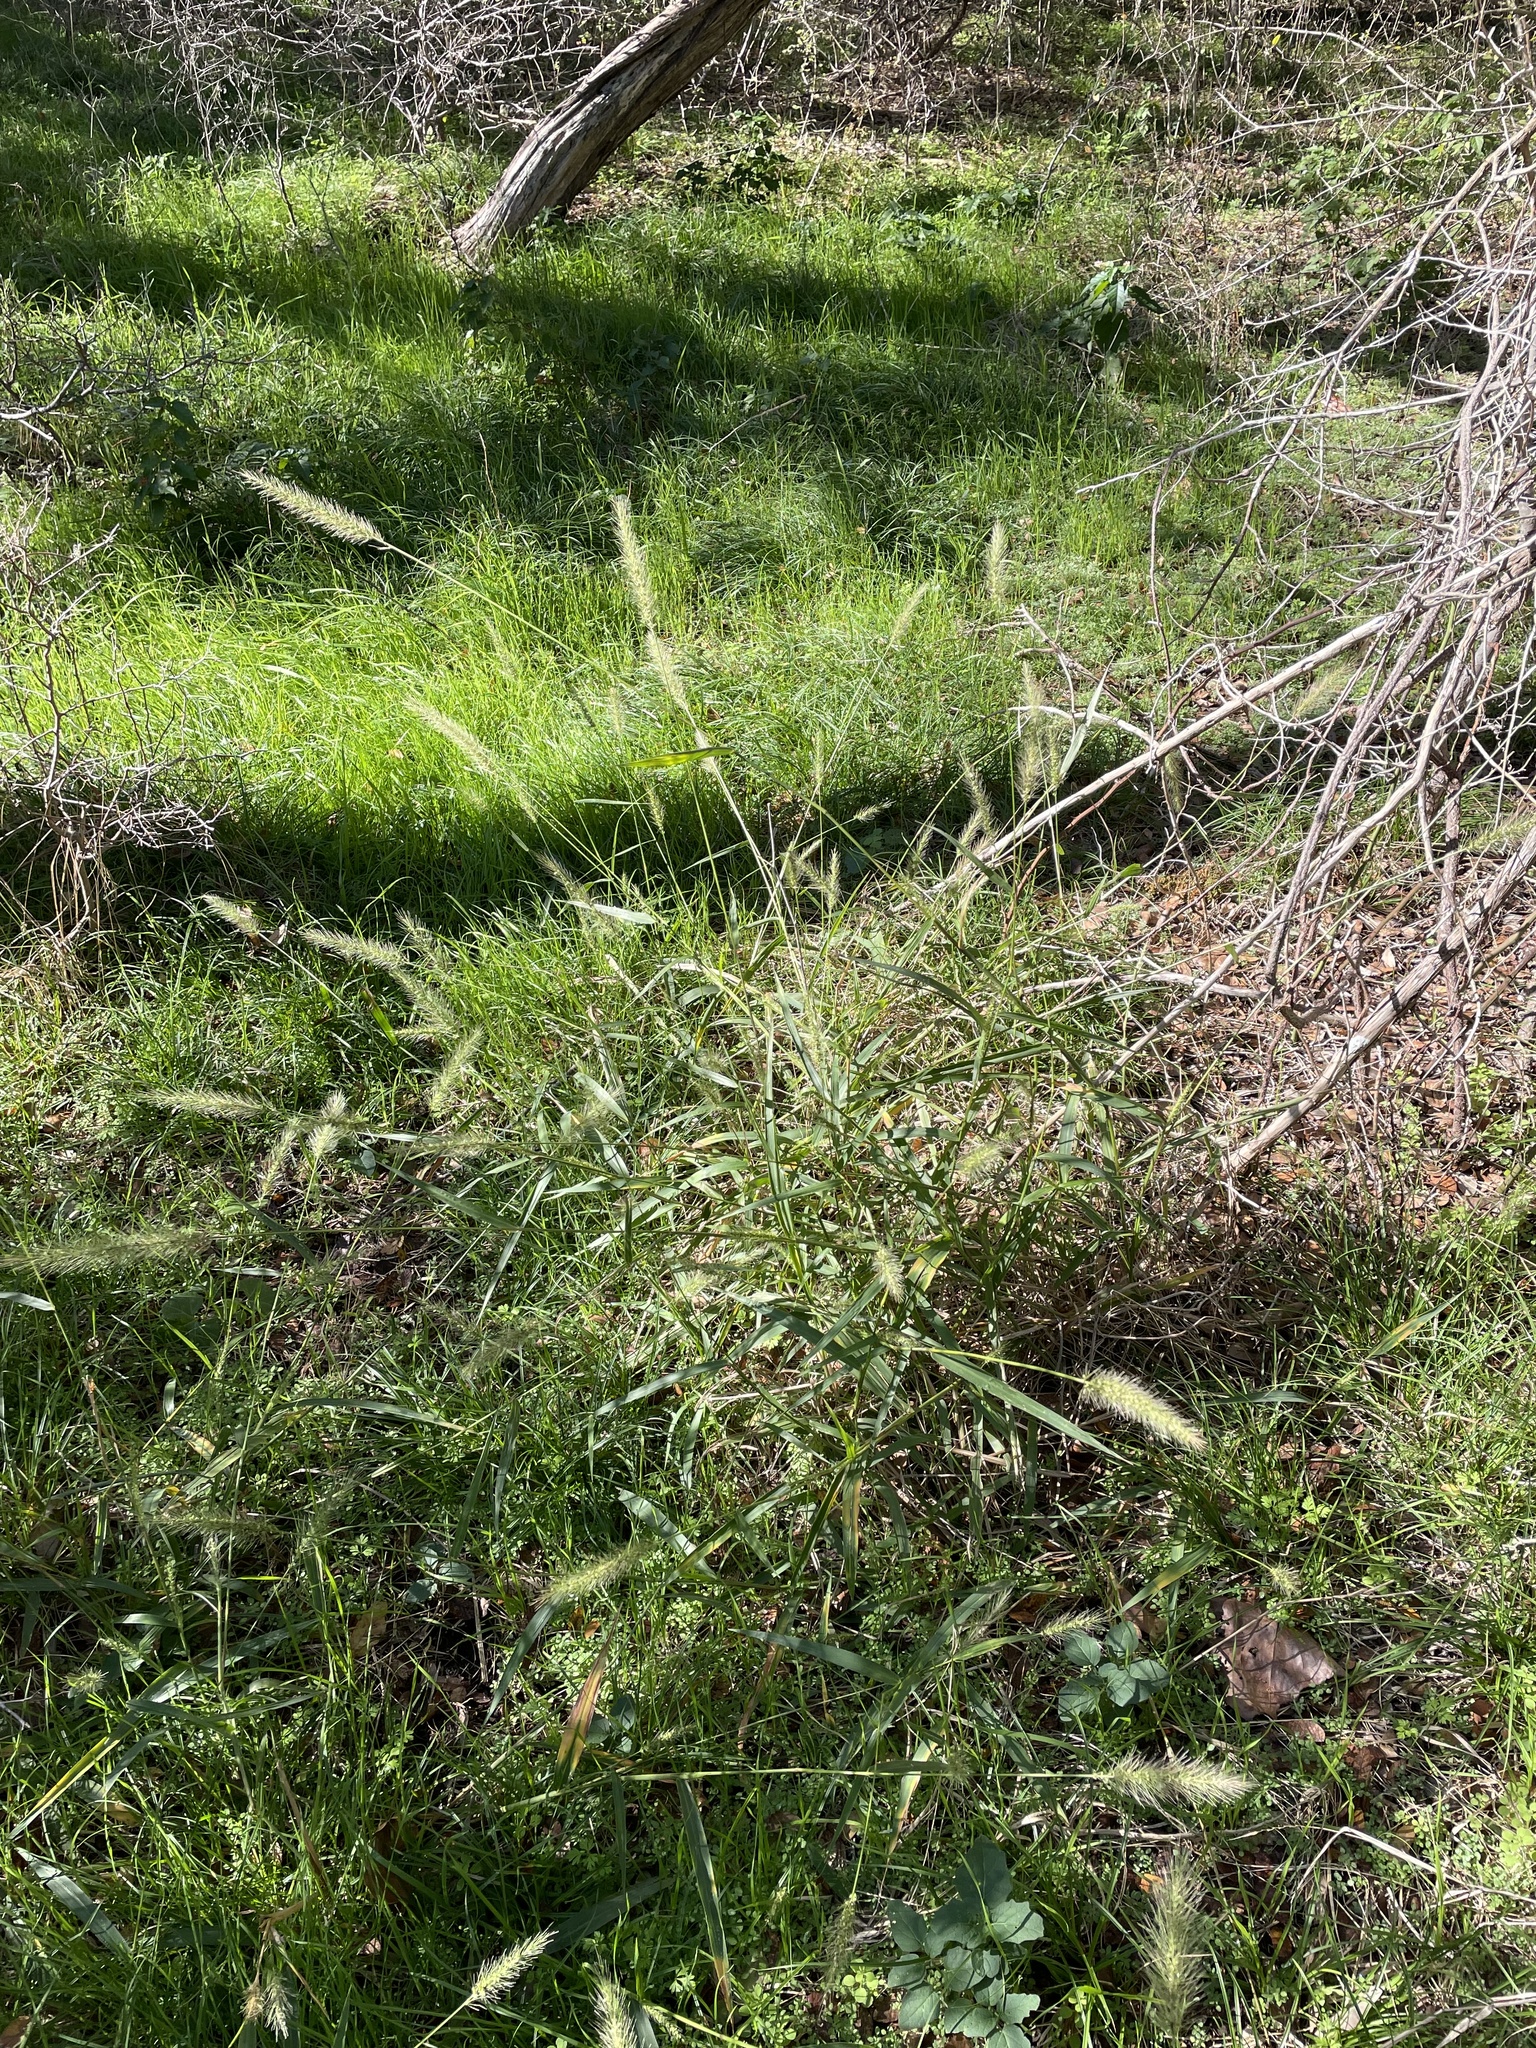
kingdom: Plantae
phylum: Tracheophyta
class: Liliopsida
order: Poales
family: Poaceae
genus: Setaria
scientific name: Setaria scheelei
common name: Southwestern bristle grass
